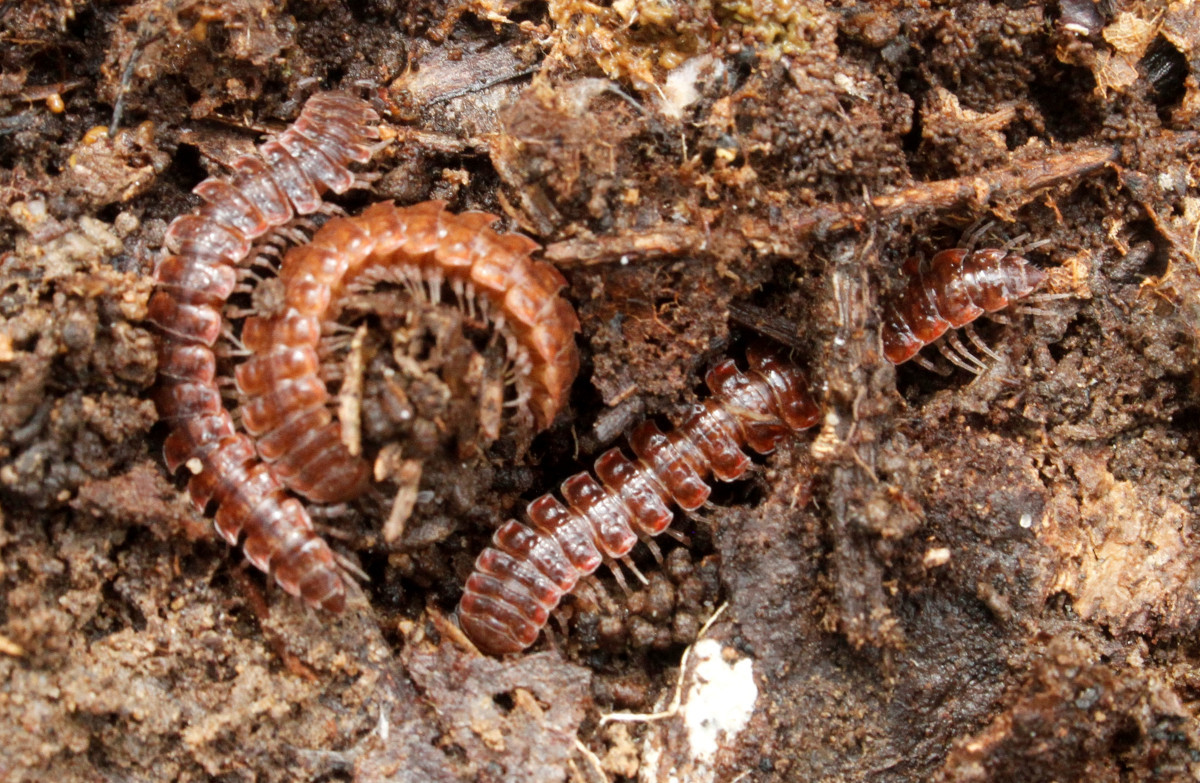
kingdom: Animalia
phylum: Arthropoda
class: Diplopoda
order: Polydesmida
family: Polydesmidae
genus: Pseudopolydesmus
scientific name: Pseudopolydesmus serratus
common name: Common pink flat-back millipede
